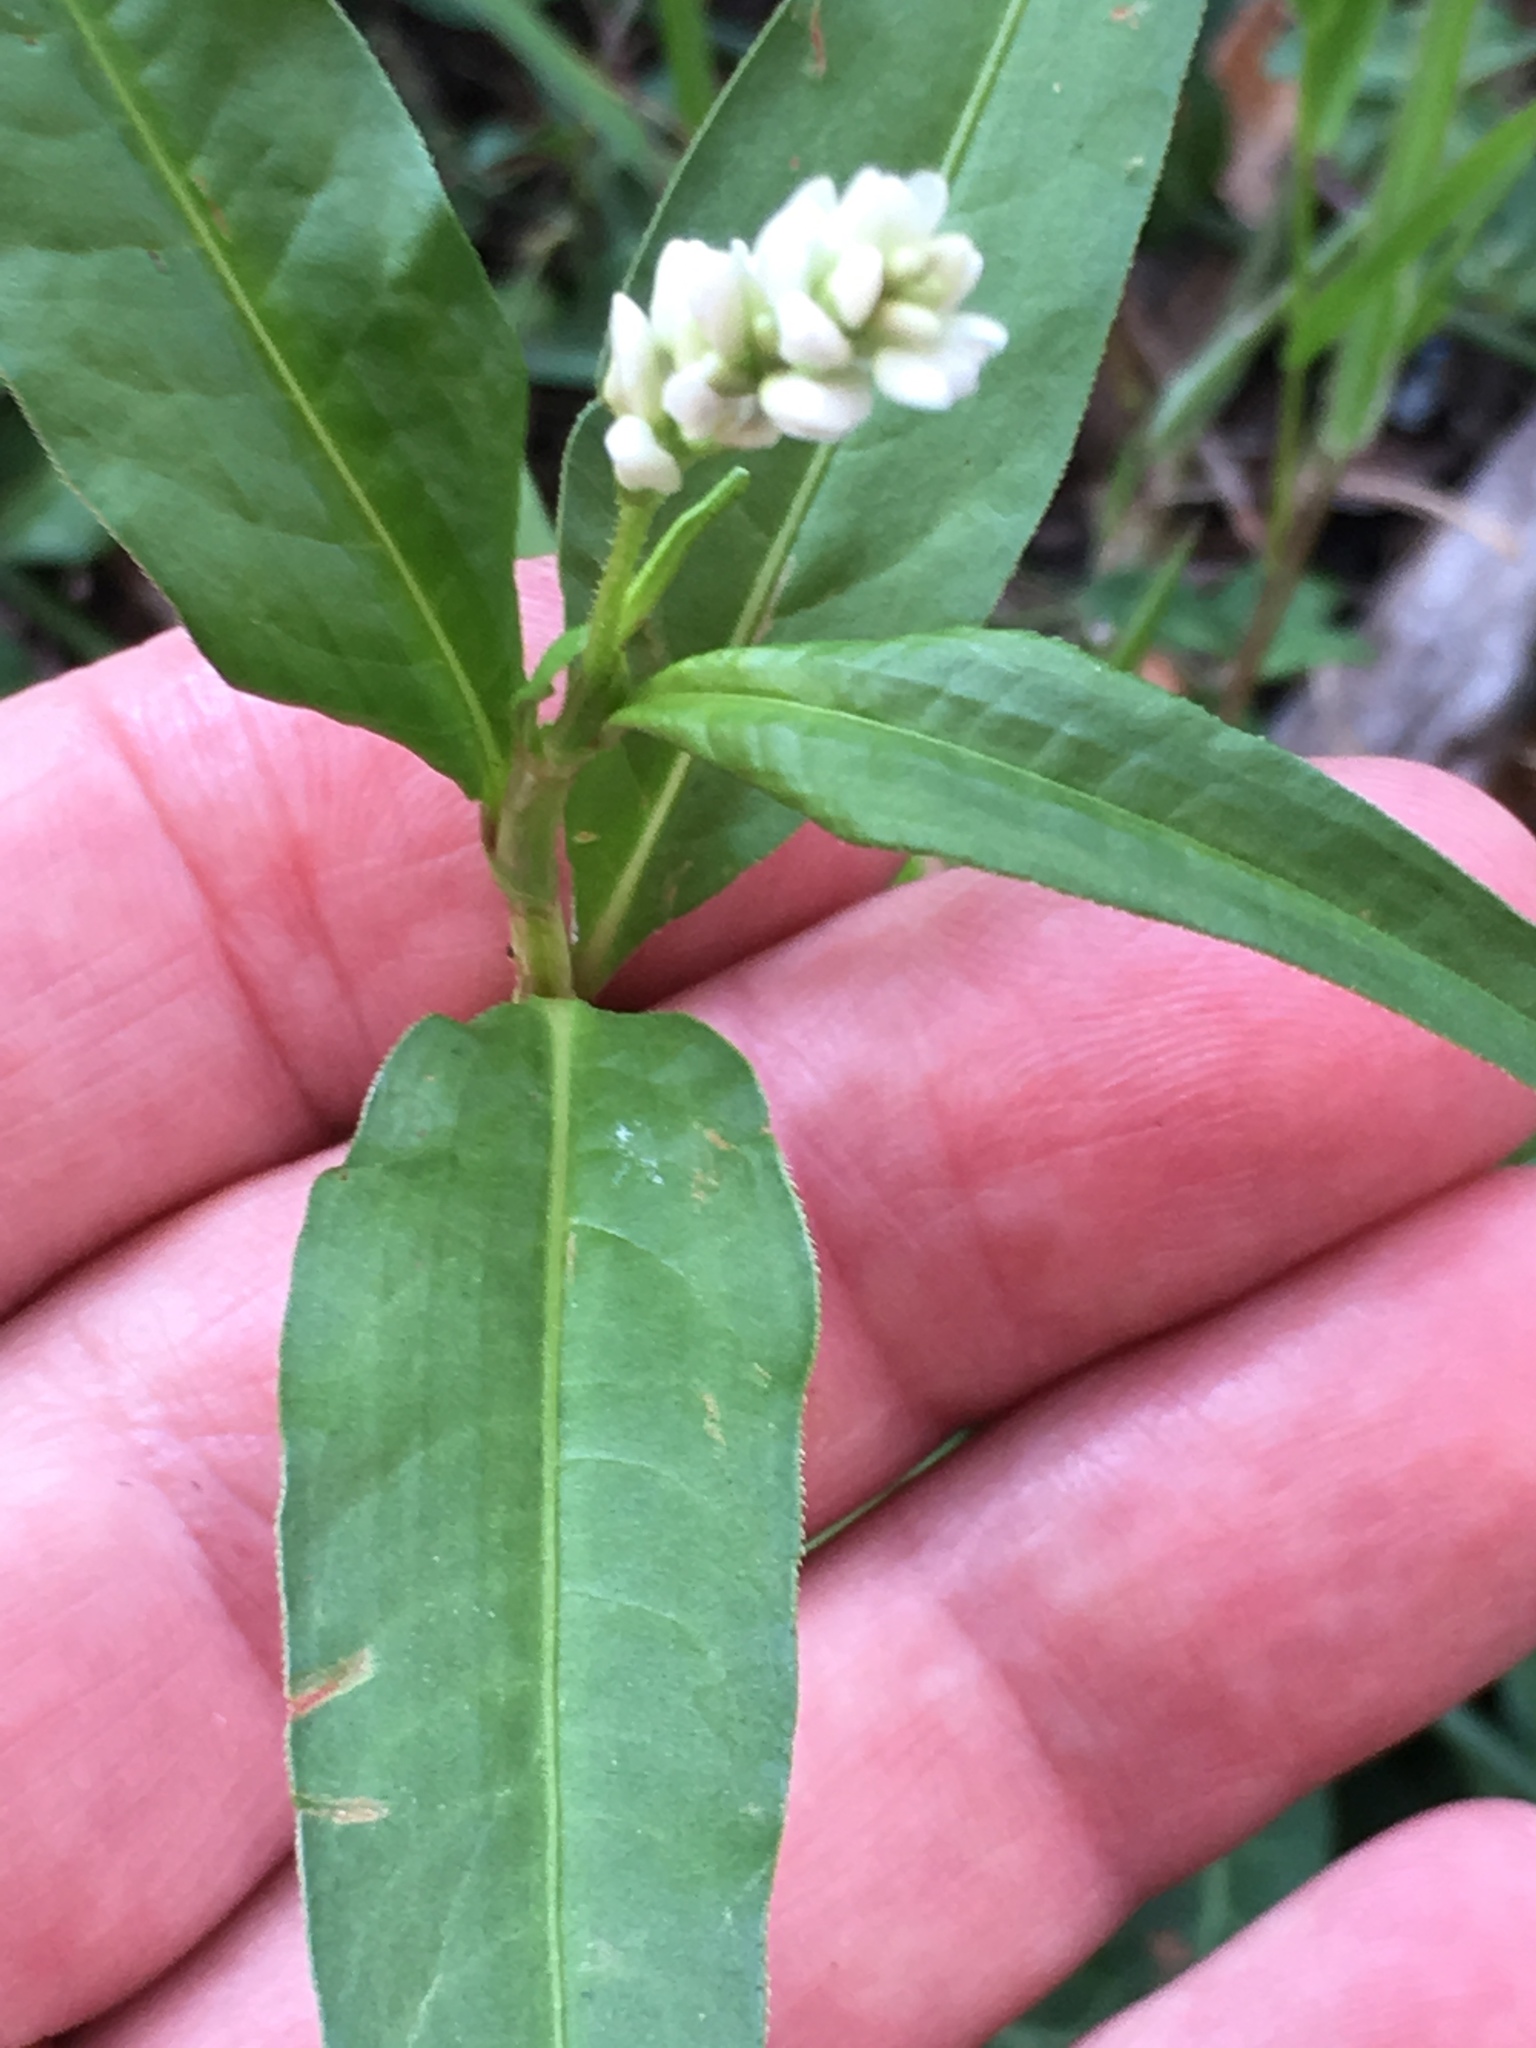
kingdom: Plantae
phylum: Tracheophyta
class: Magnoliopsida
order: Caryophyllales
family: Polygonaceae
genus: Persicaria
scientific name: Persicaria pensylvanica
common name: Pinkweed
